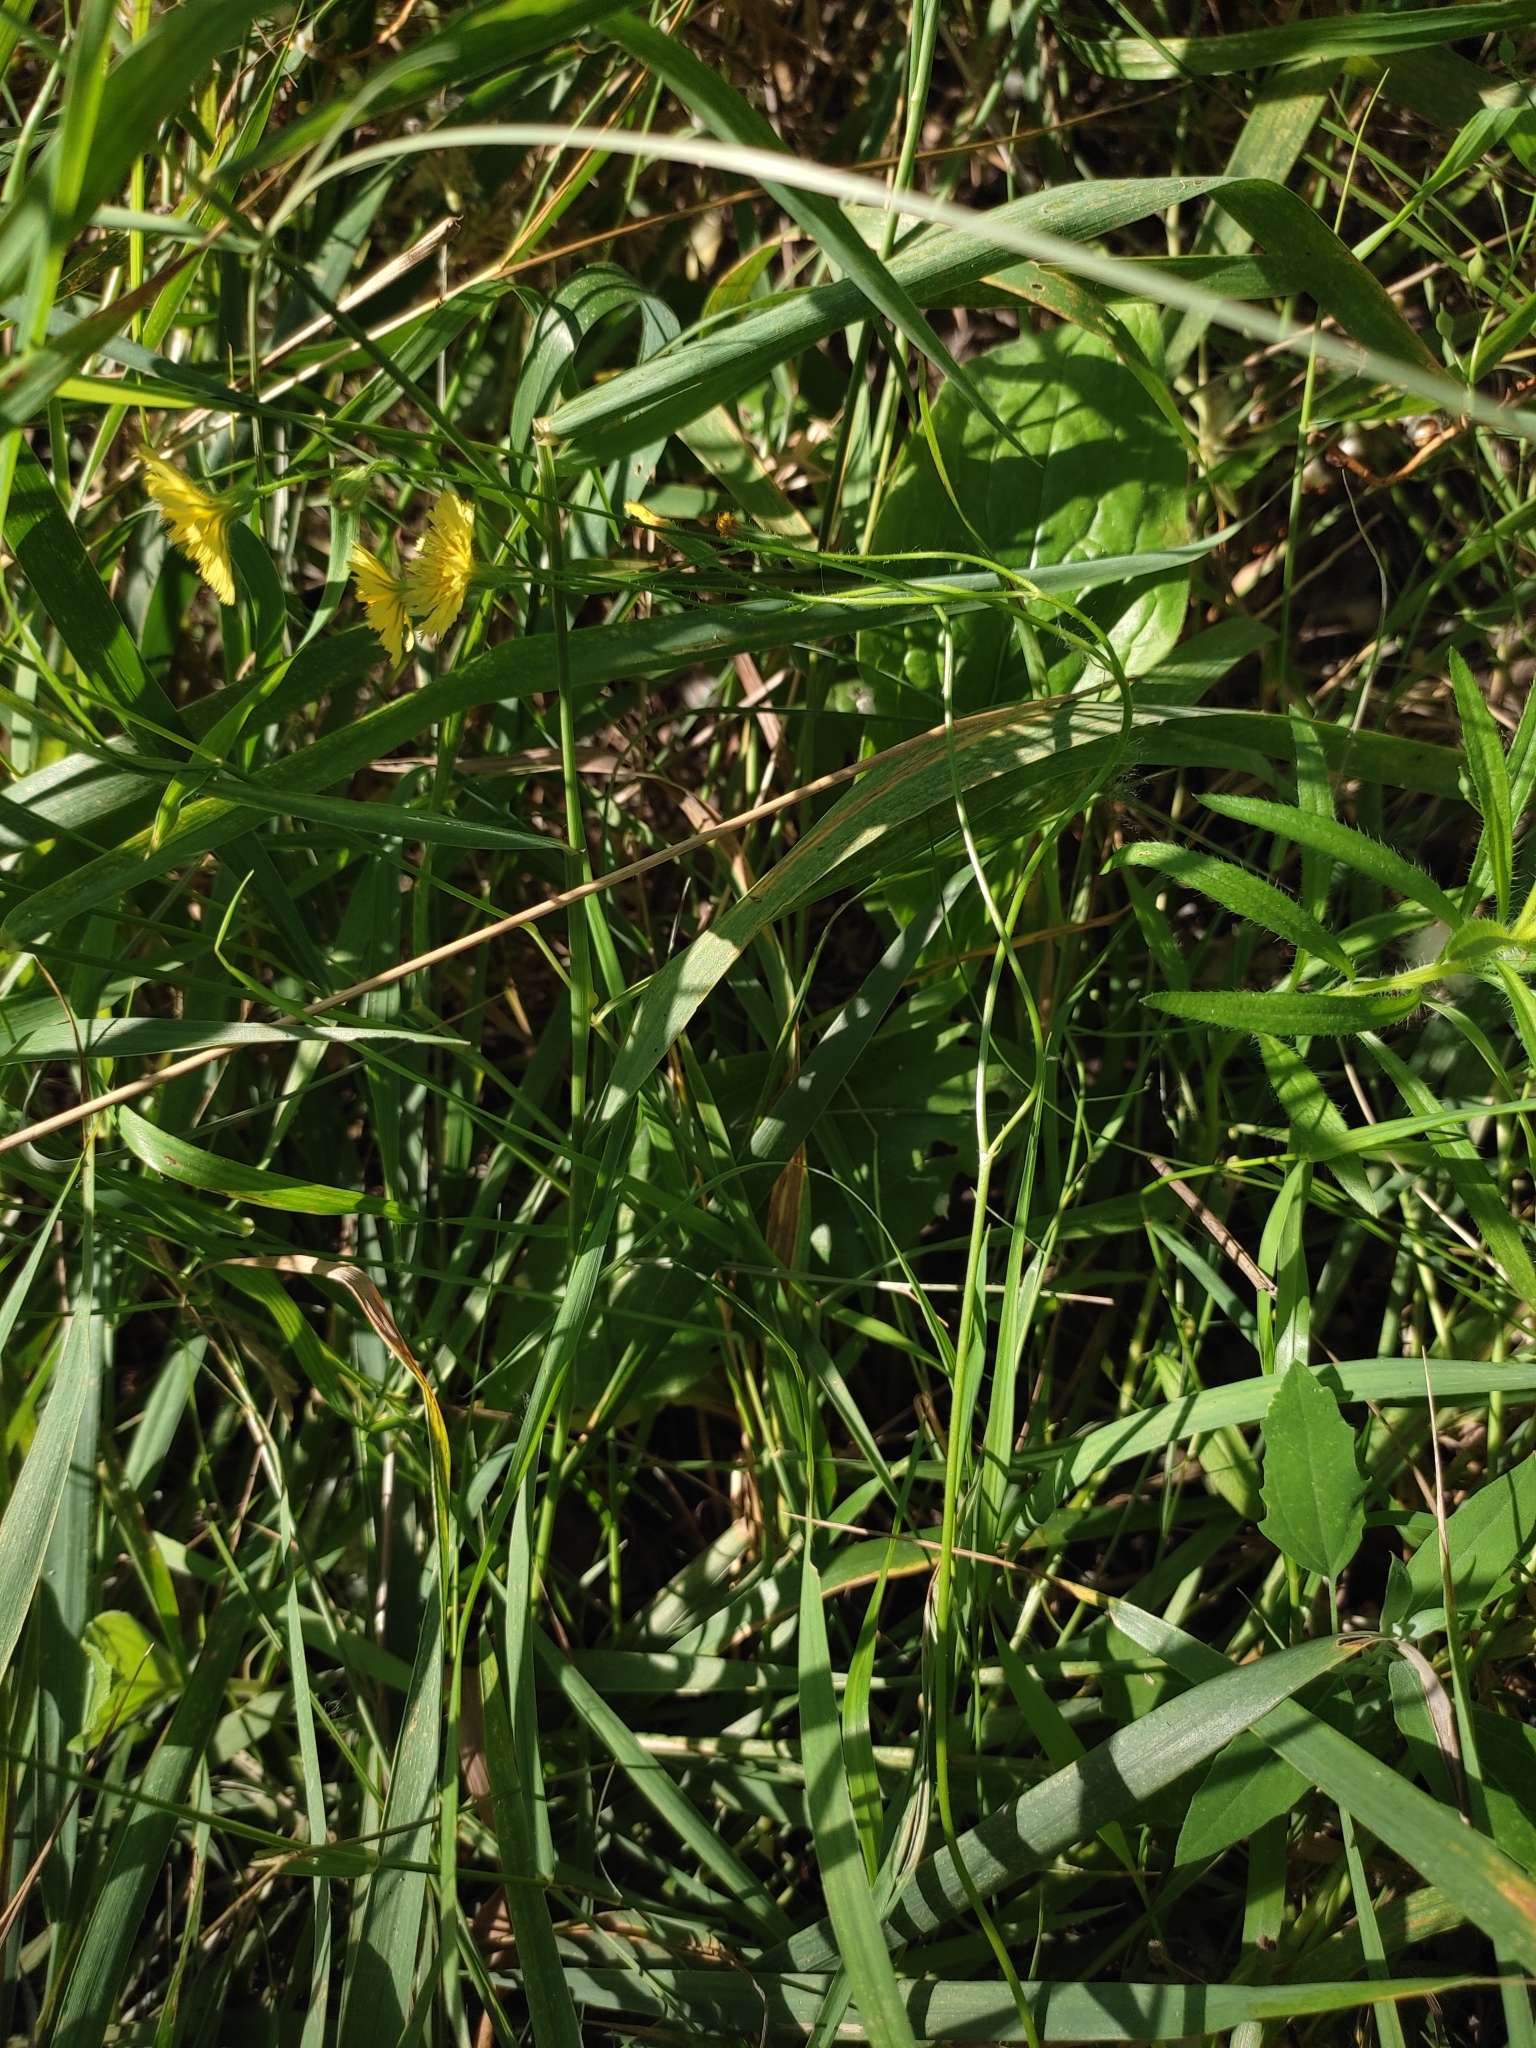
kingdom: Plantae
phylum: Tracheophyta
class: Magnoliopsida
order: Asterales
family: Asteraceae
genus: Crepis
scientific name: Crepis sancta
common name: Hawk's-beard
